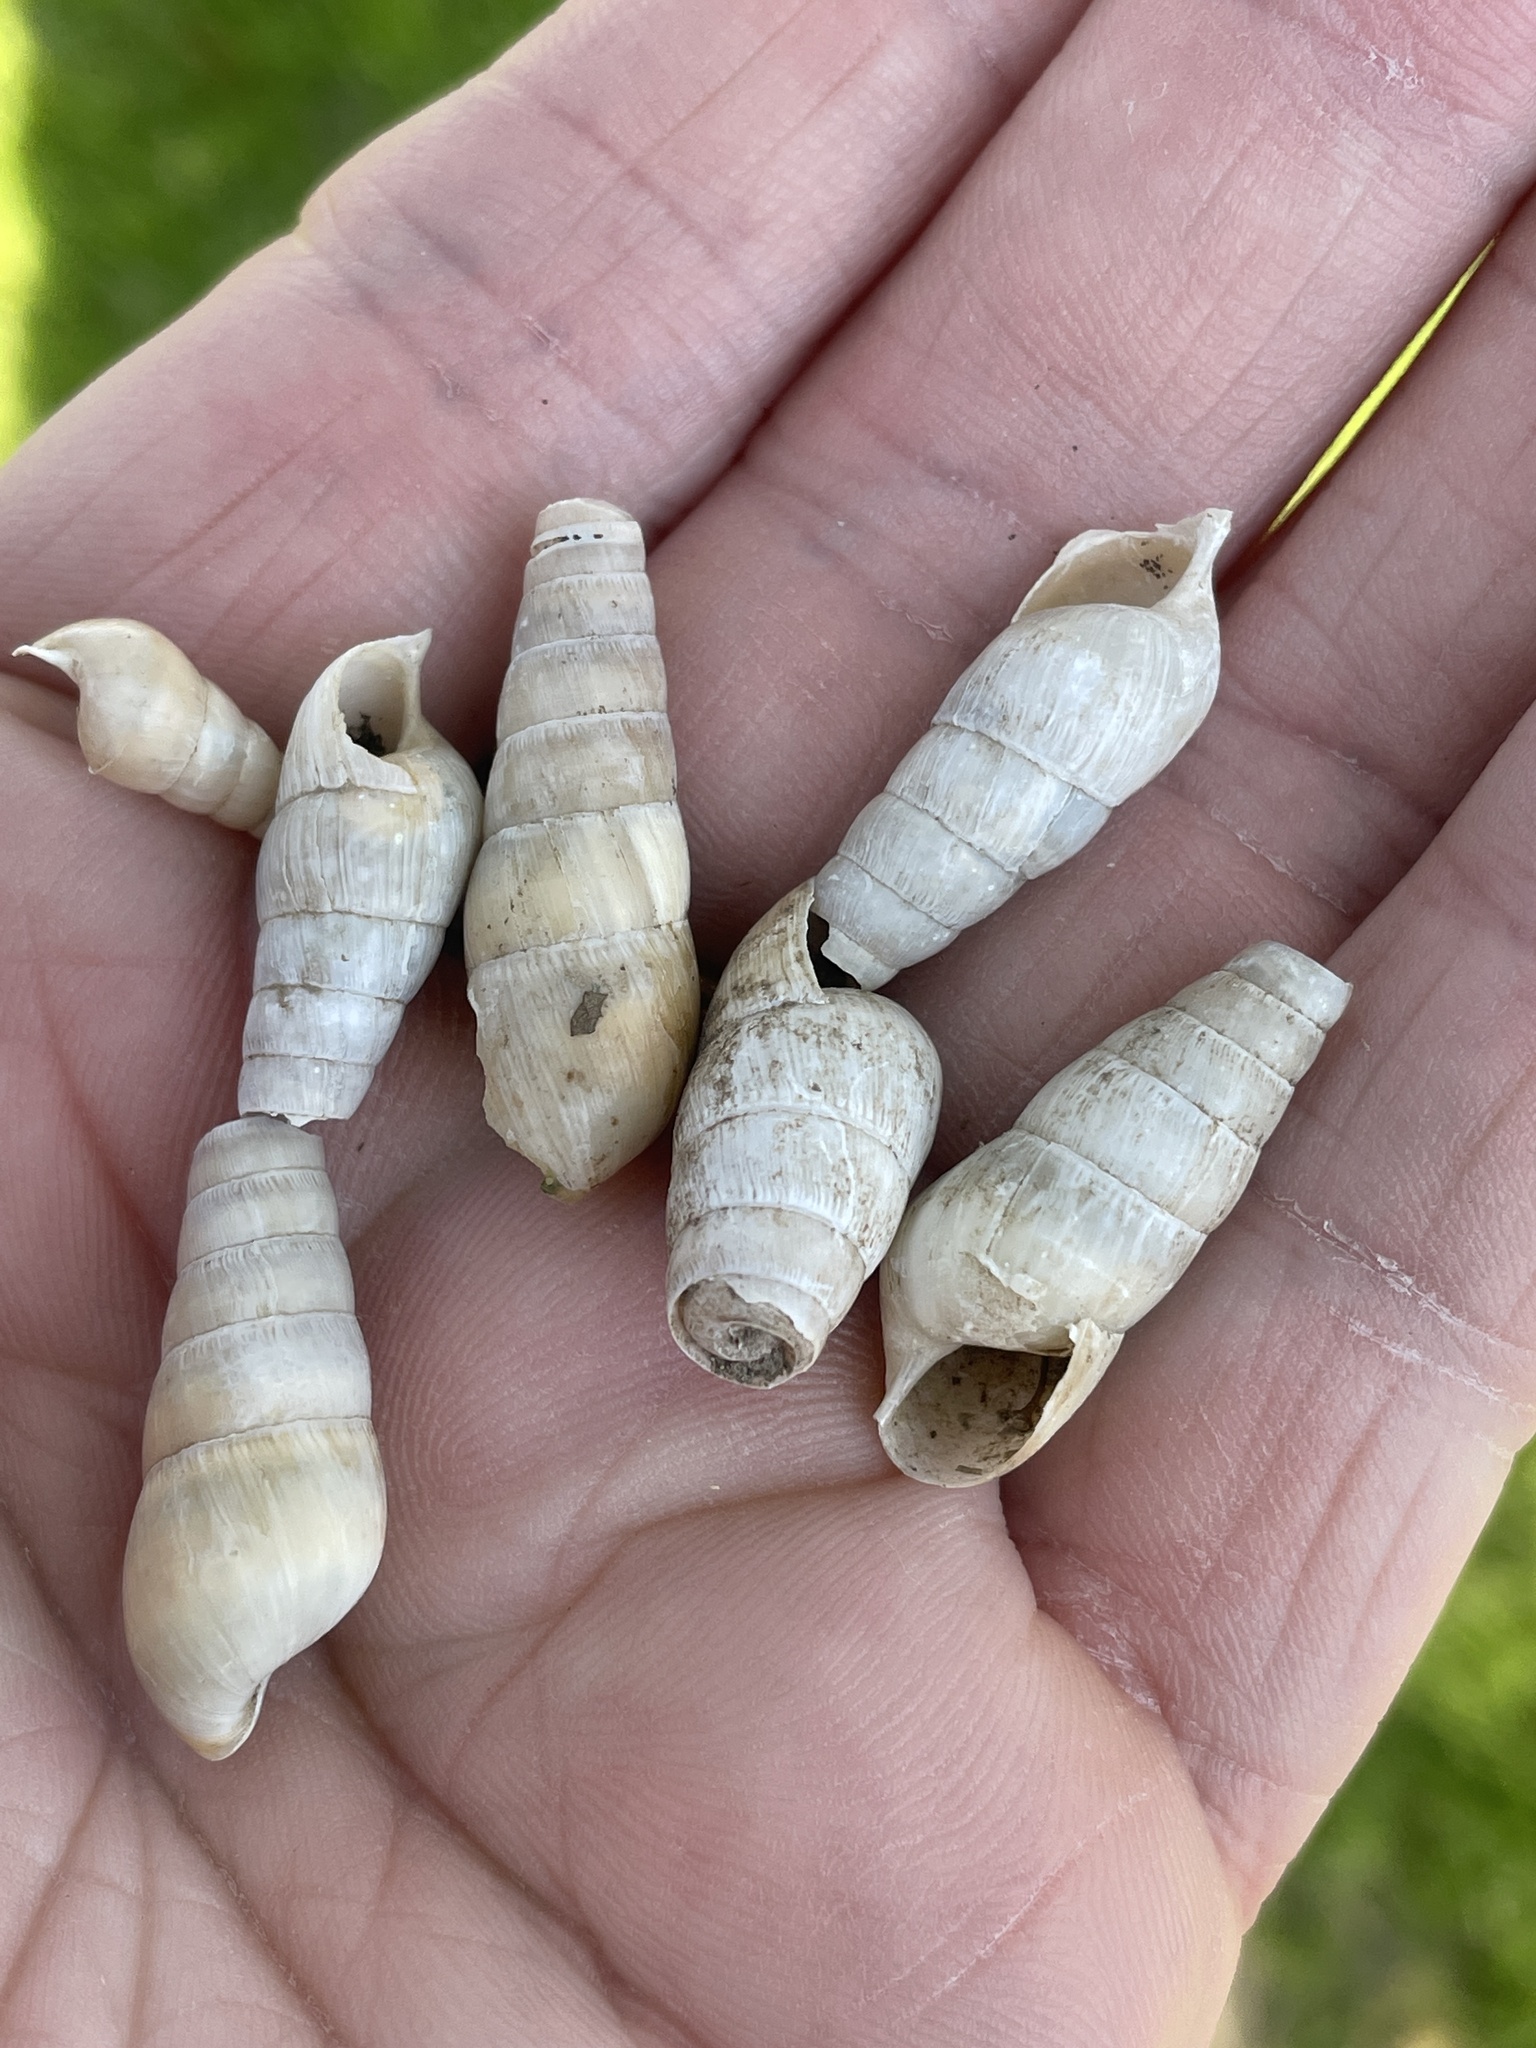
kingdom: Animalia
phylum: Mollusca
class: Gastropoda
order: Stylommatophora
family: Achatinidae
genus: Rumina
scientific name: Rumina decollata
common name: Decollate snail
